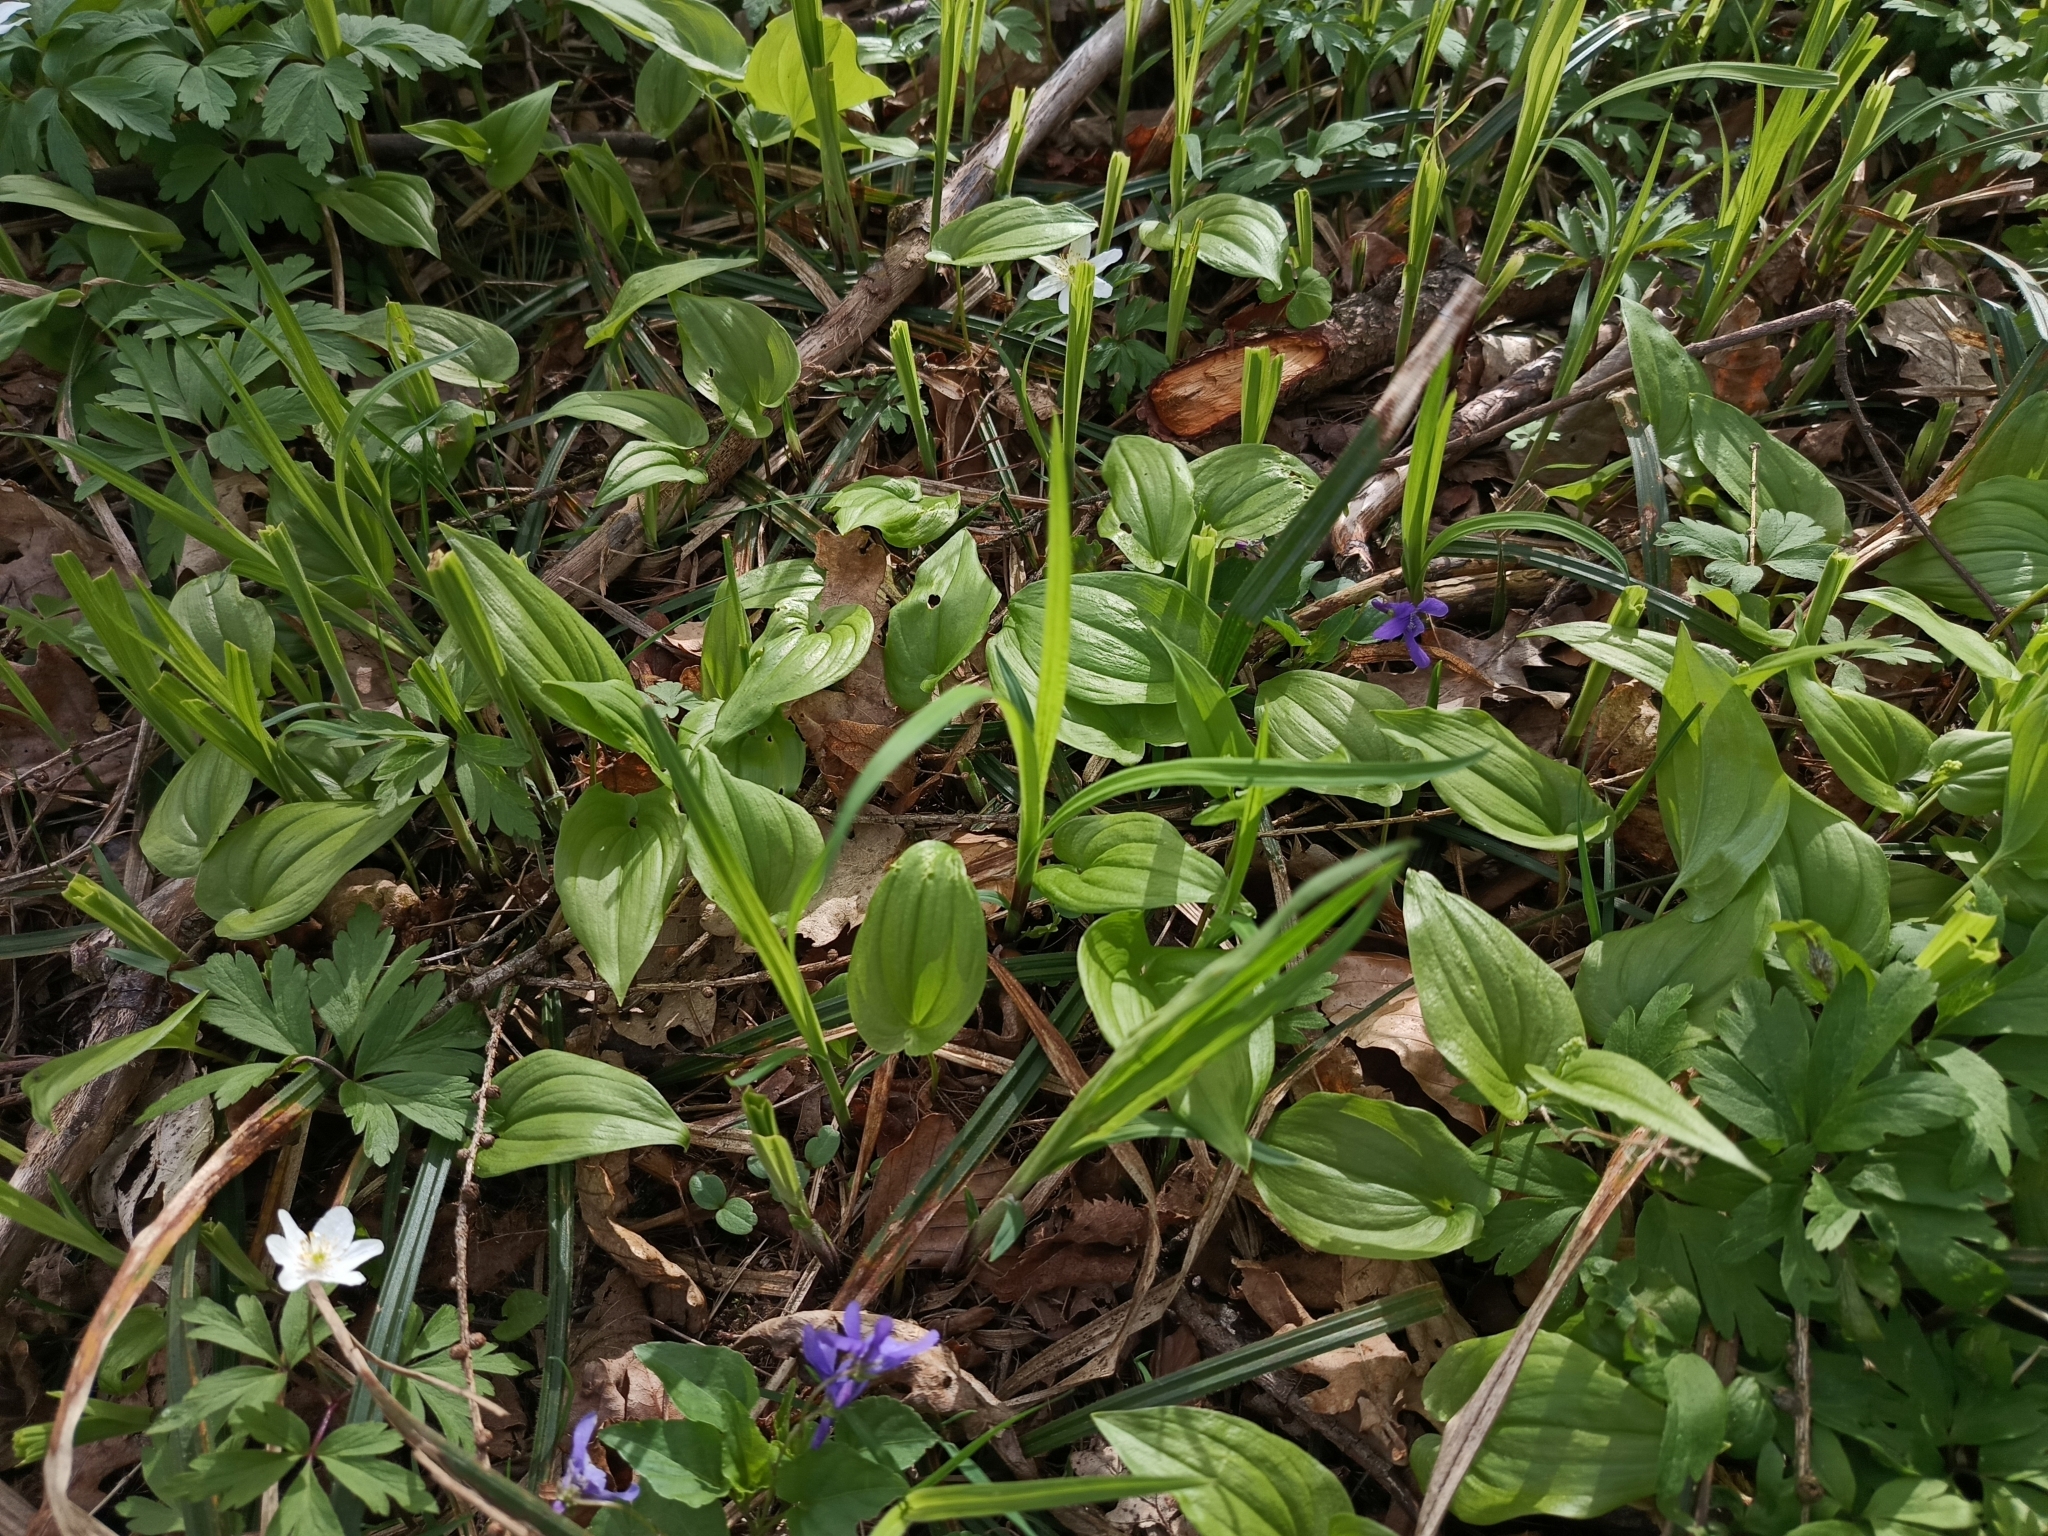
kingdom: Plantae
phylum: Tracheophyta
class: Liliopsida
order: Asparagales
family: Asparagaceae
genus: Maianthemum
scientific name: Maianthemum bifolium
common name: May lily
